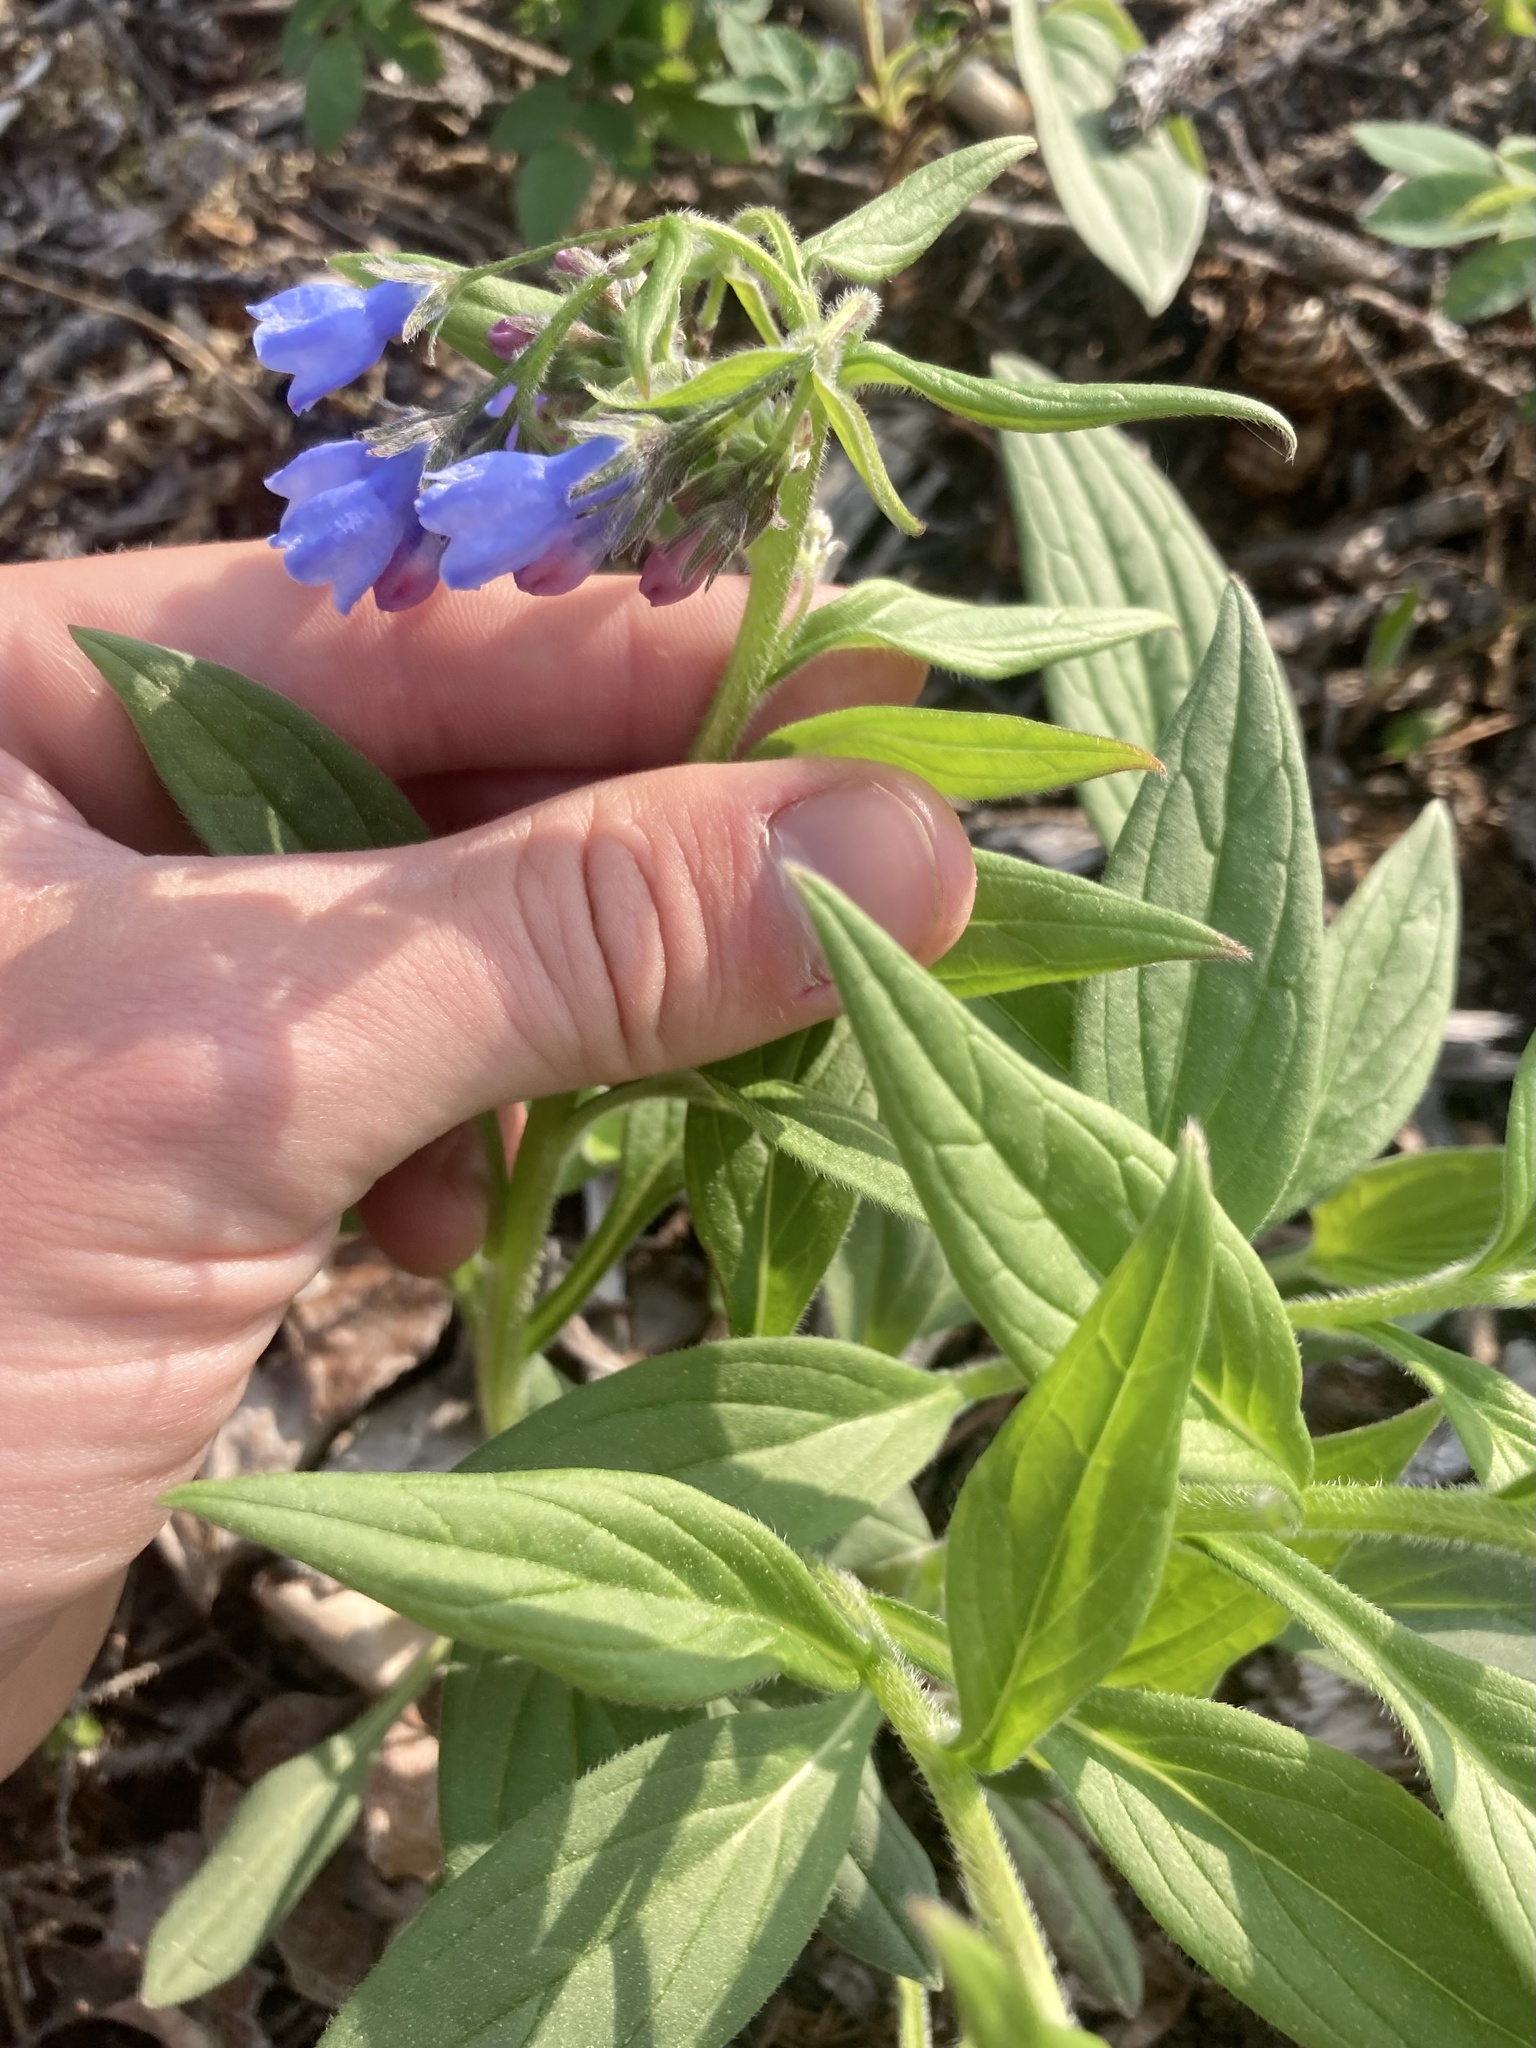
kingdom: Plantae
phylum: Tracheophyta
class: Magnoliopsida
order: Boraginales
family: Boraginaceae
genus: Mertensia
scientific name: Mertensia paniculata
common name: Panicled bluebells
